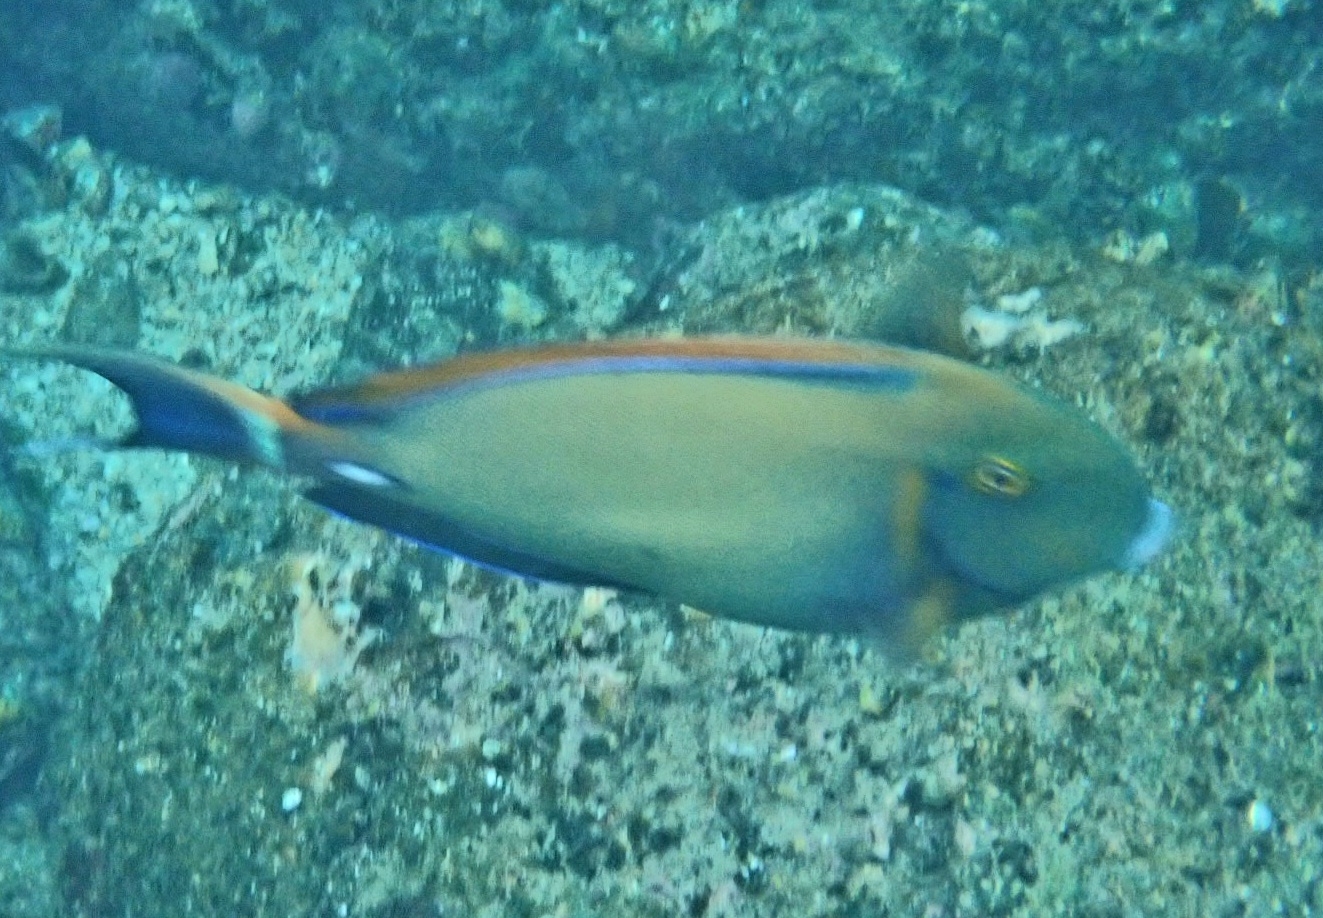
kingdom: Animalia
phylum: Chordata
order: Perciformes
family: Acanthuridae
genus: Acanthurus
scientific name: Acanthurus dussumieri
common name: Dussumier's surgeonfish
